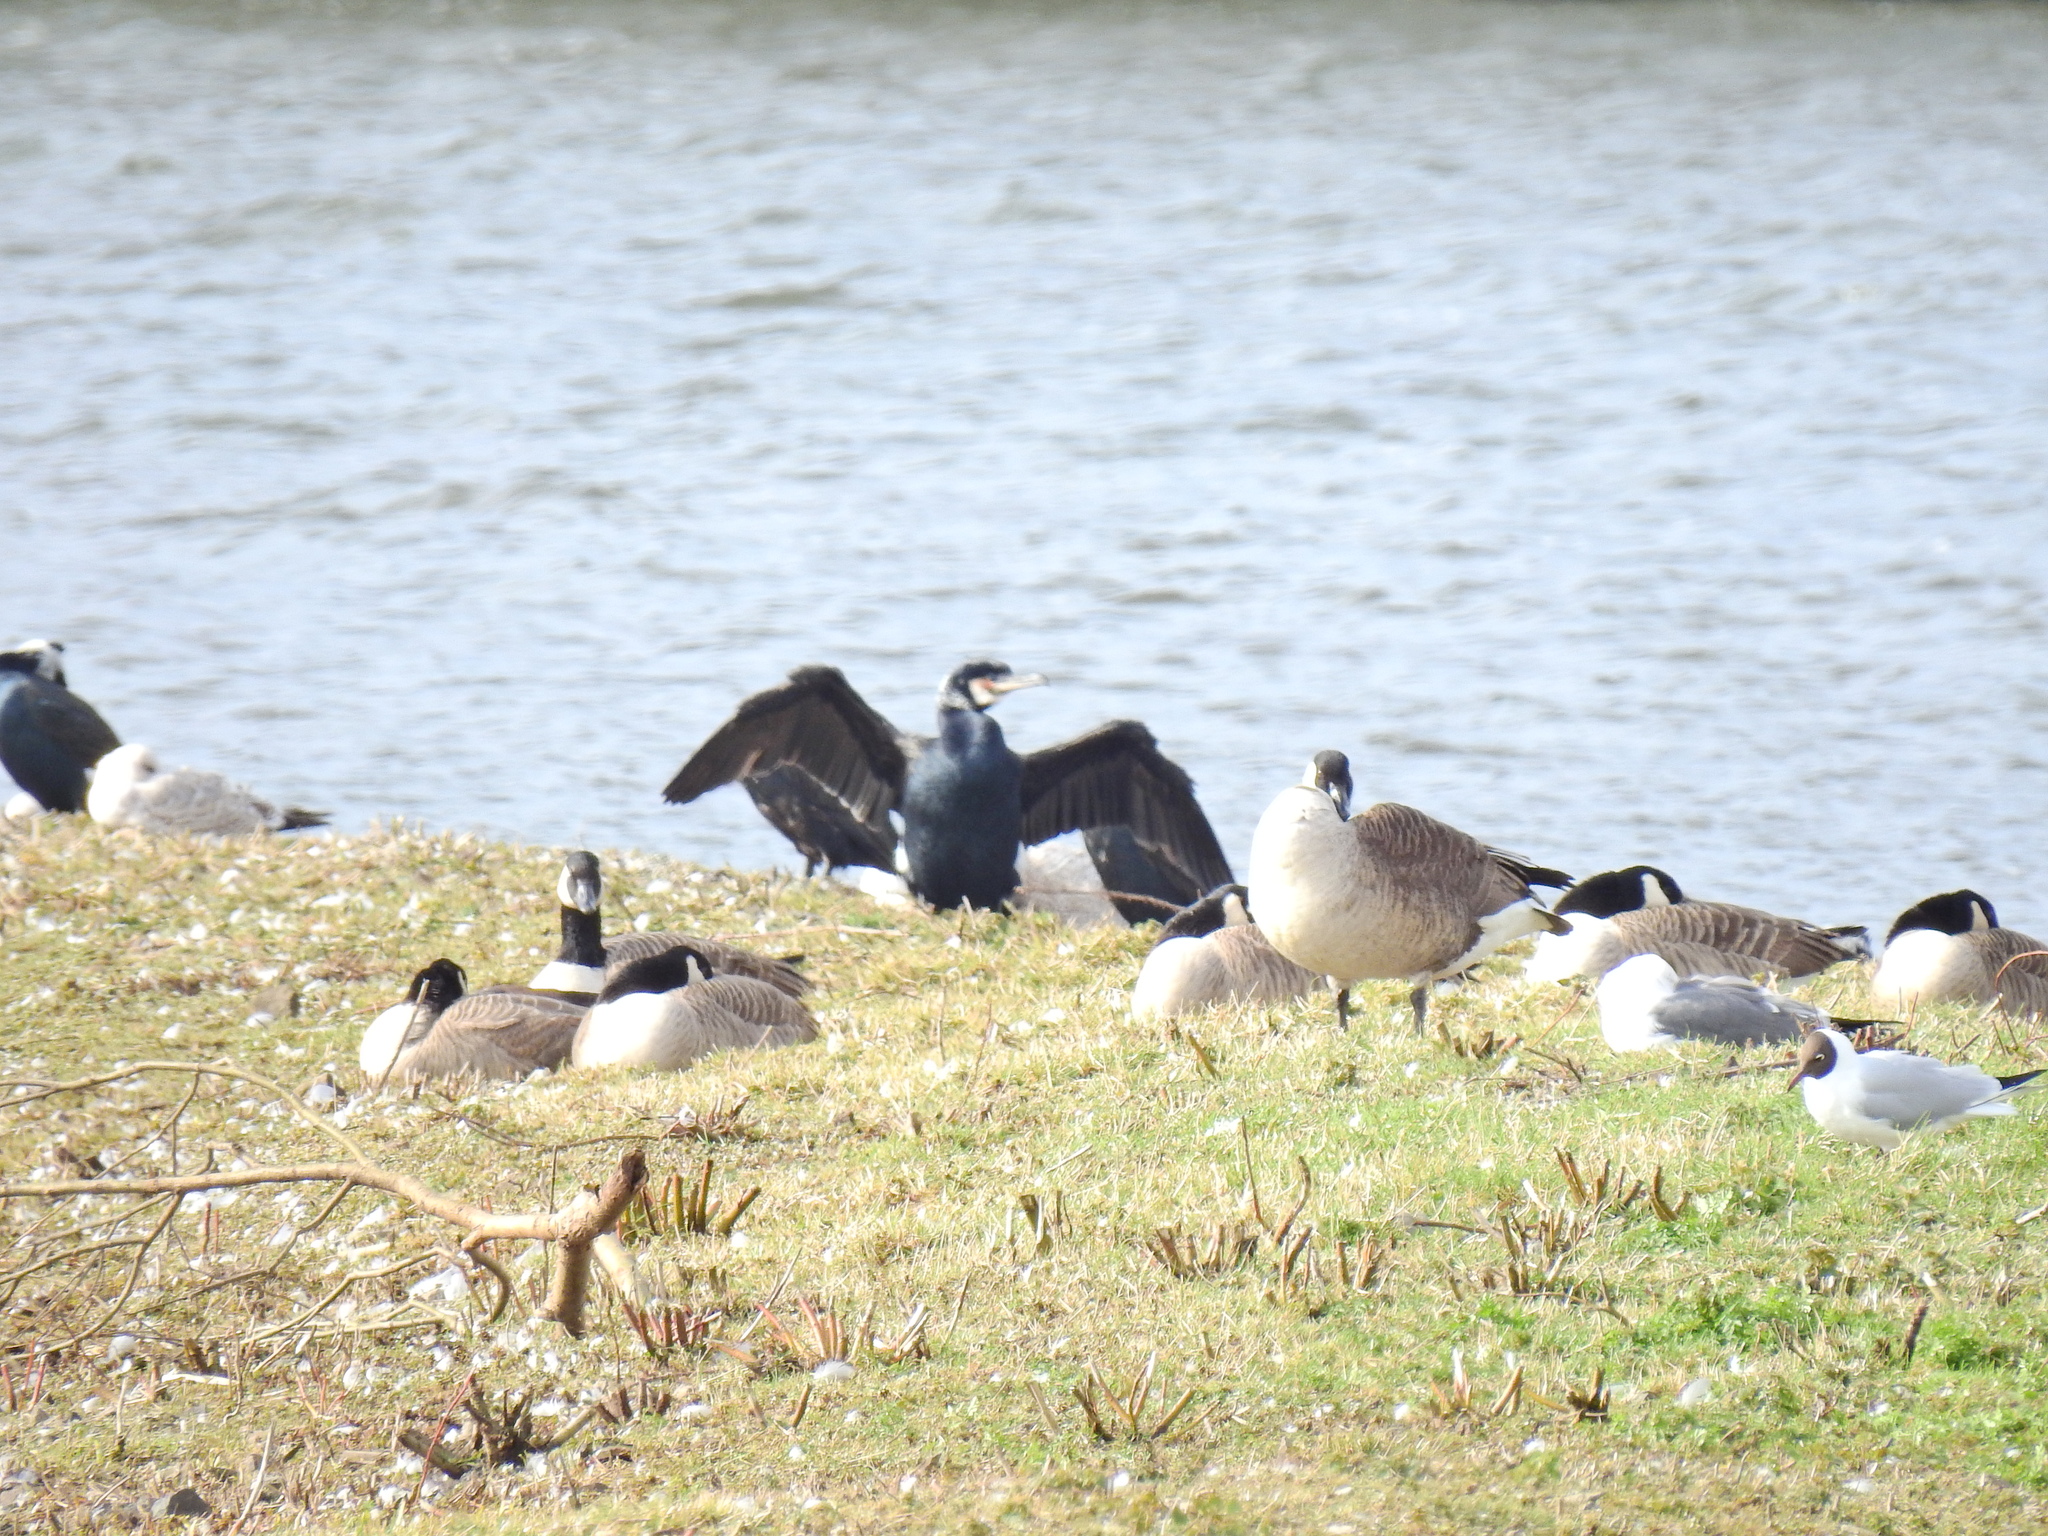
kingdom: Animalia
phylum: Chordata
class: Aves
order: Suliformes
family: Phalacrocoracidae
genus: Phalacrocorax
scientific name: Phalacrocorax carbo
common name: Great cormorant
